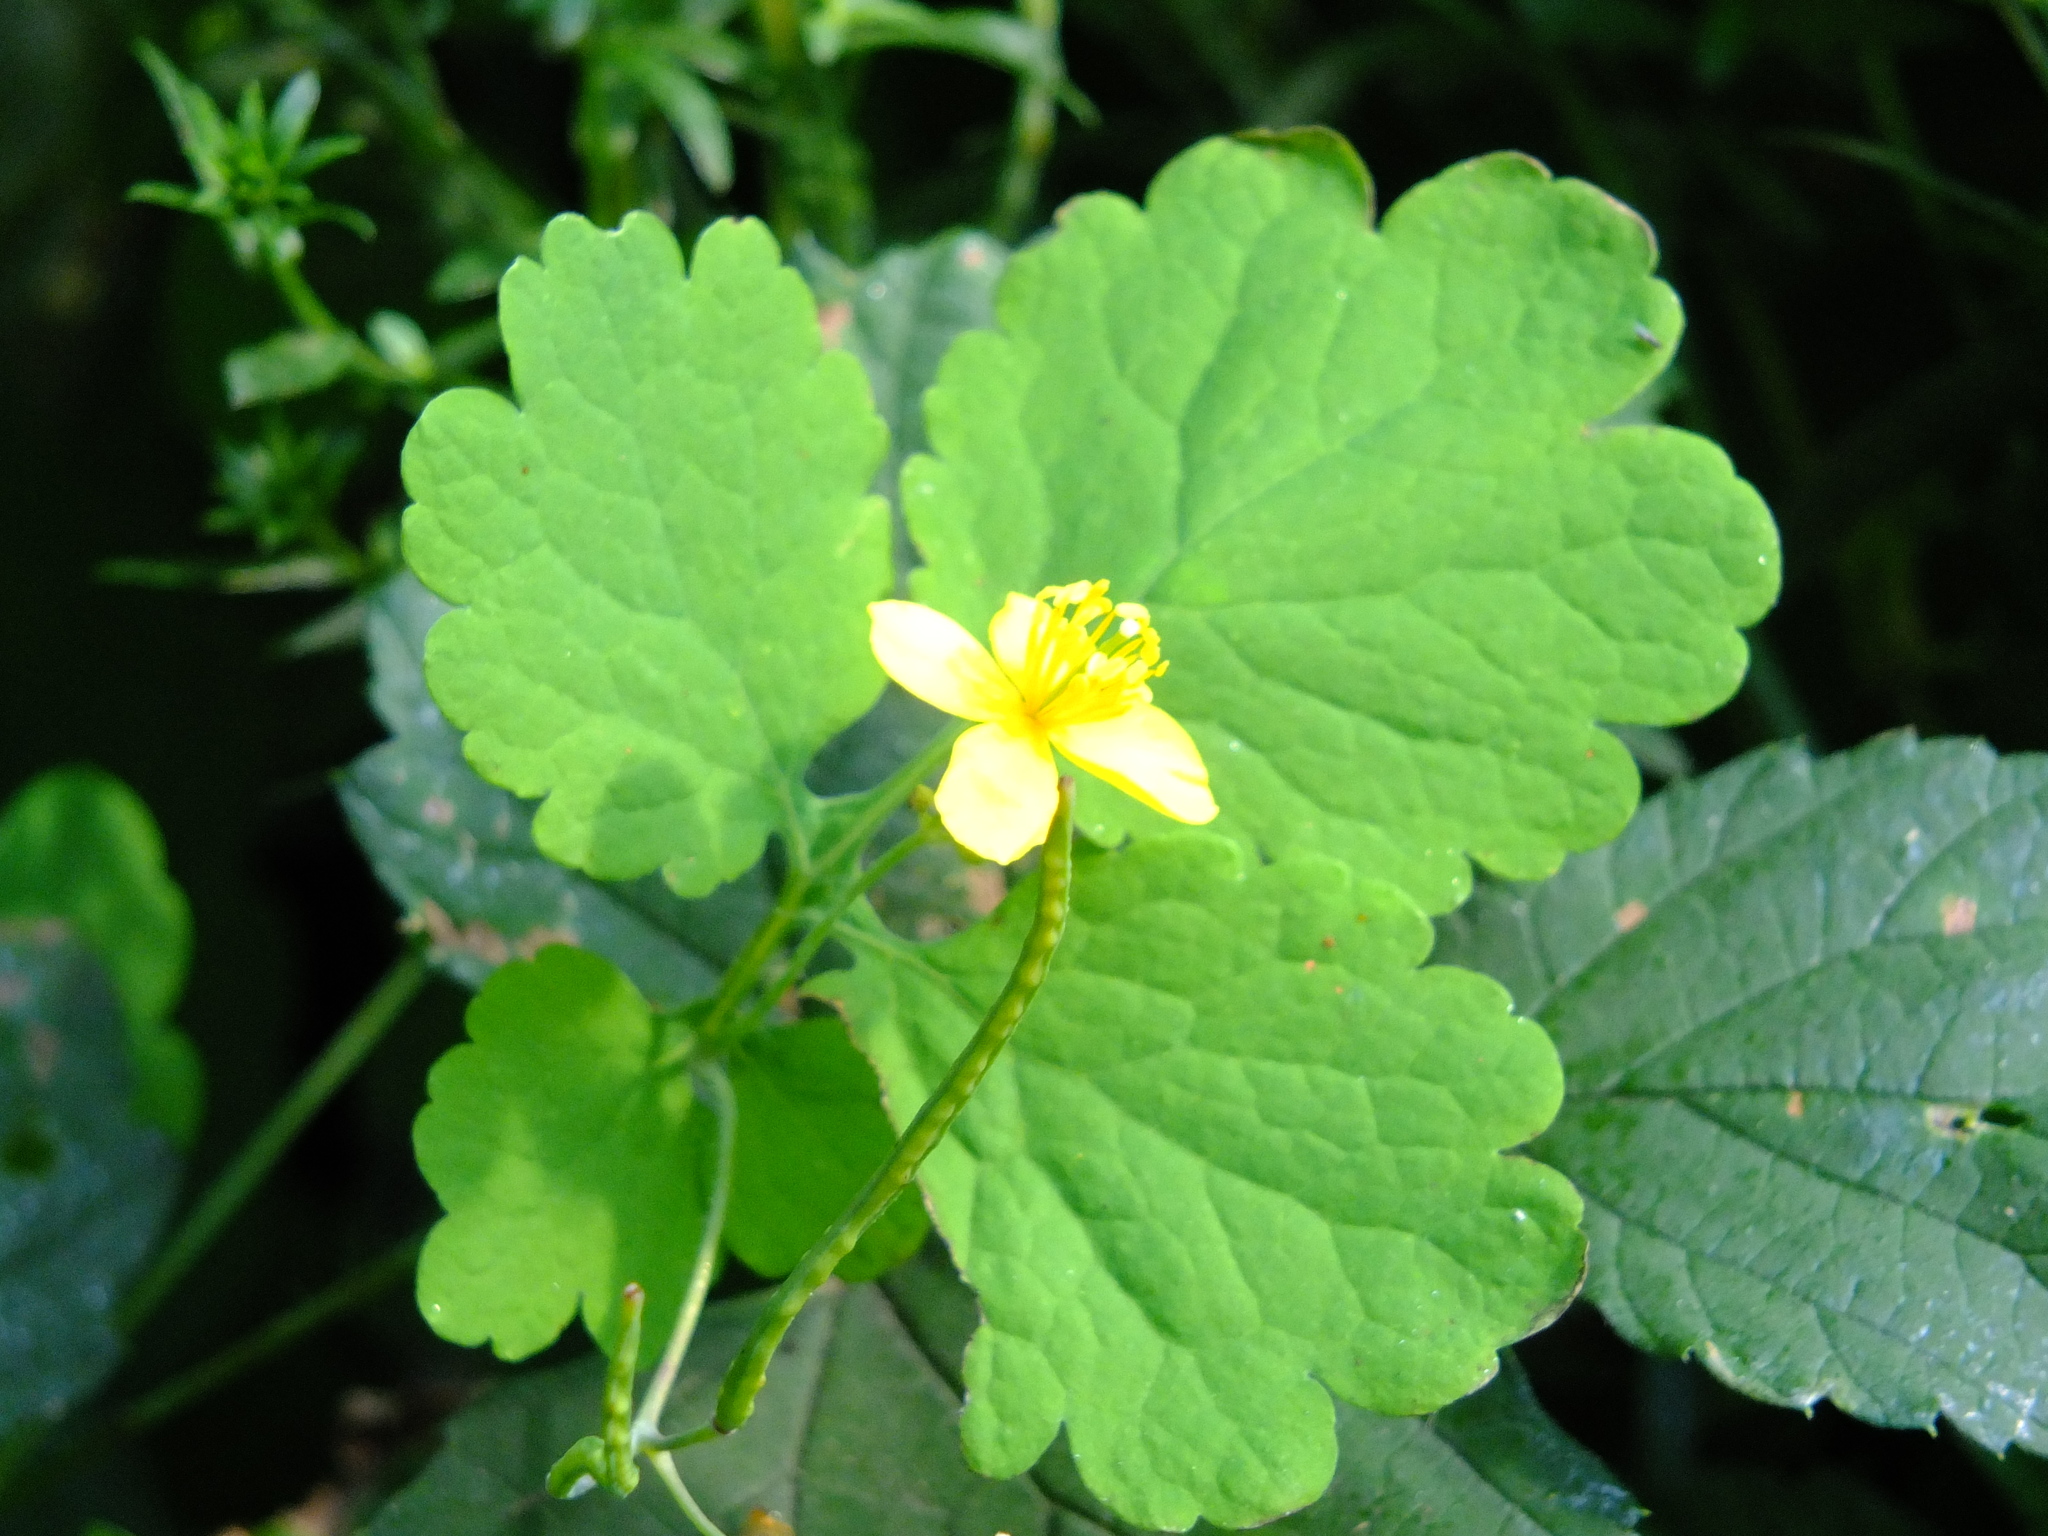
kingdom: Plantae
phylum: Tracheophyta
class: Magnoliopsida
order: Ranunculales
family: Papaveraceae
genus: Chelidonium
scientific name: Chelidonium majus
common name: Greater celandine
